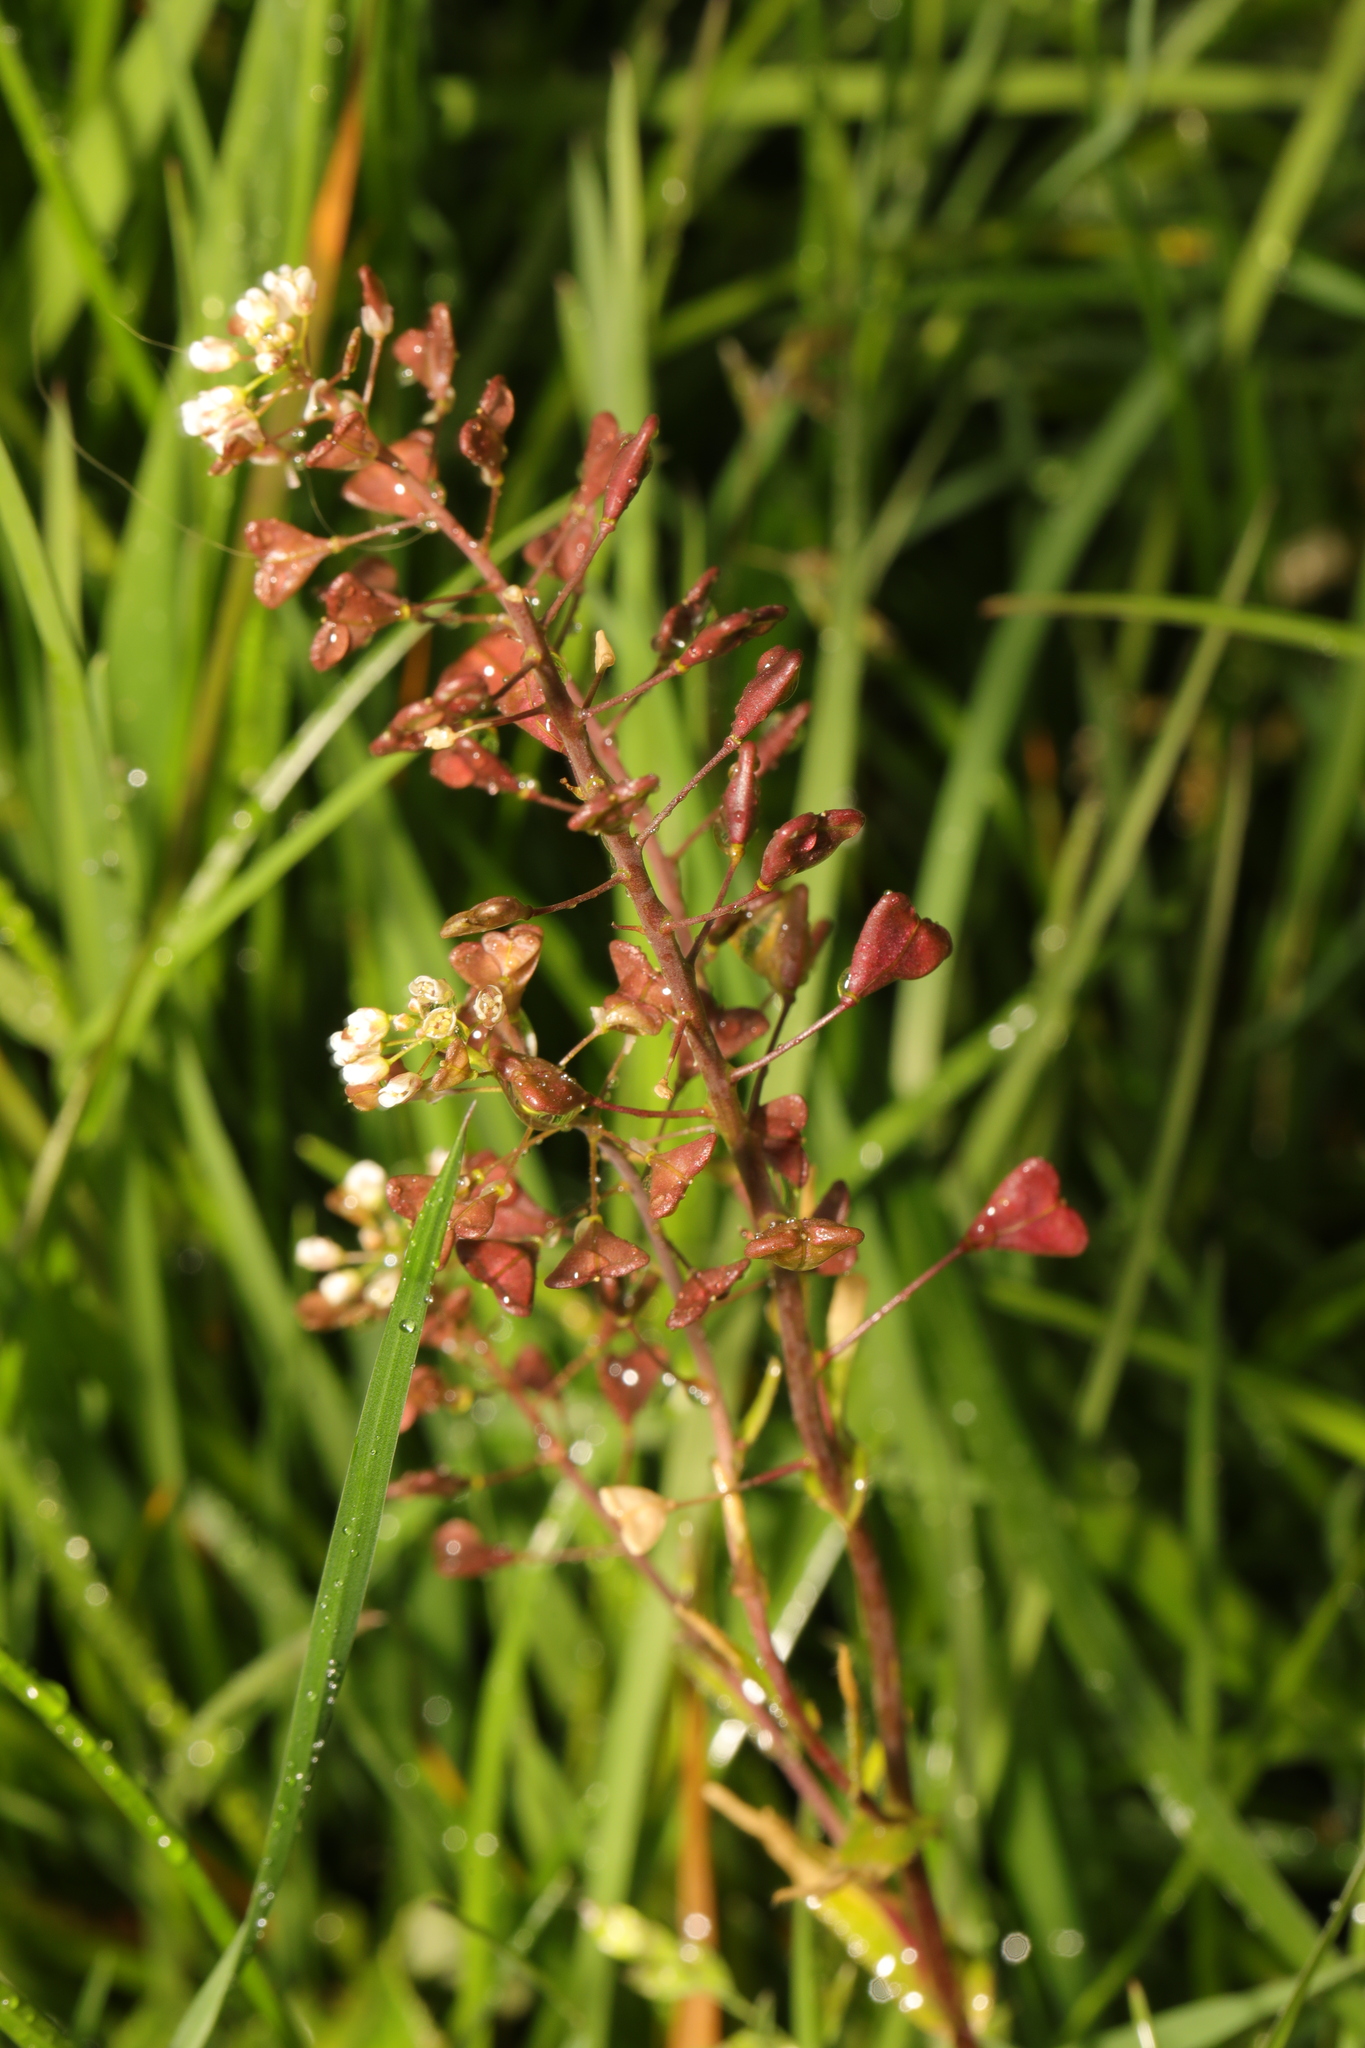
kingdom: Plantae
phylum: Tracheophyta
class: Magnoliopsida
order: Brassicales
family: Brassicaceae
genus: Capsella
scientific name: Capsella bursa-pastoris
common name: Shepherd's purse
